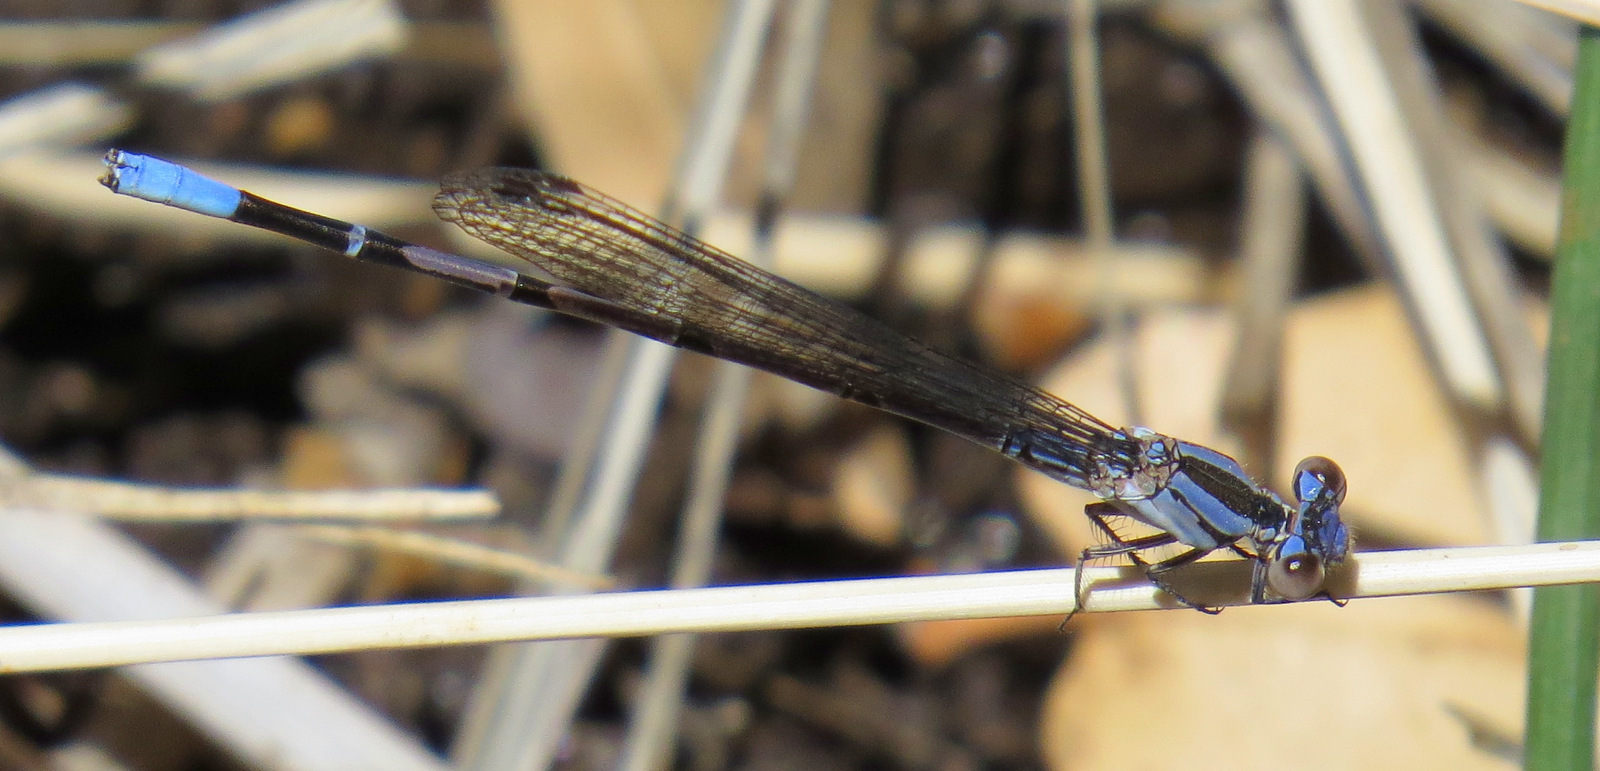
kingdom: Animalia
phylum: Arthropoda
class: Insecta
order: Odonata
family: Coenagrionidae
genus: Argia
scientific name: Argia funebris
